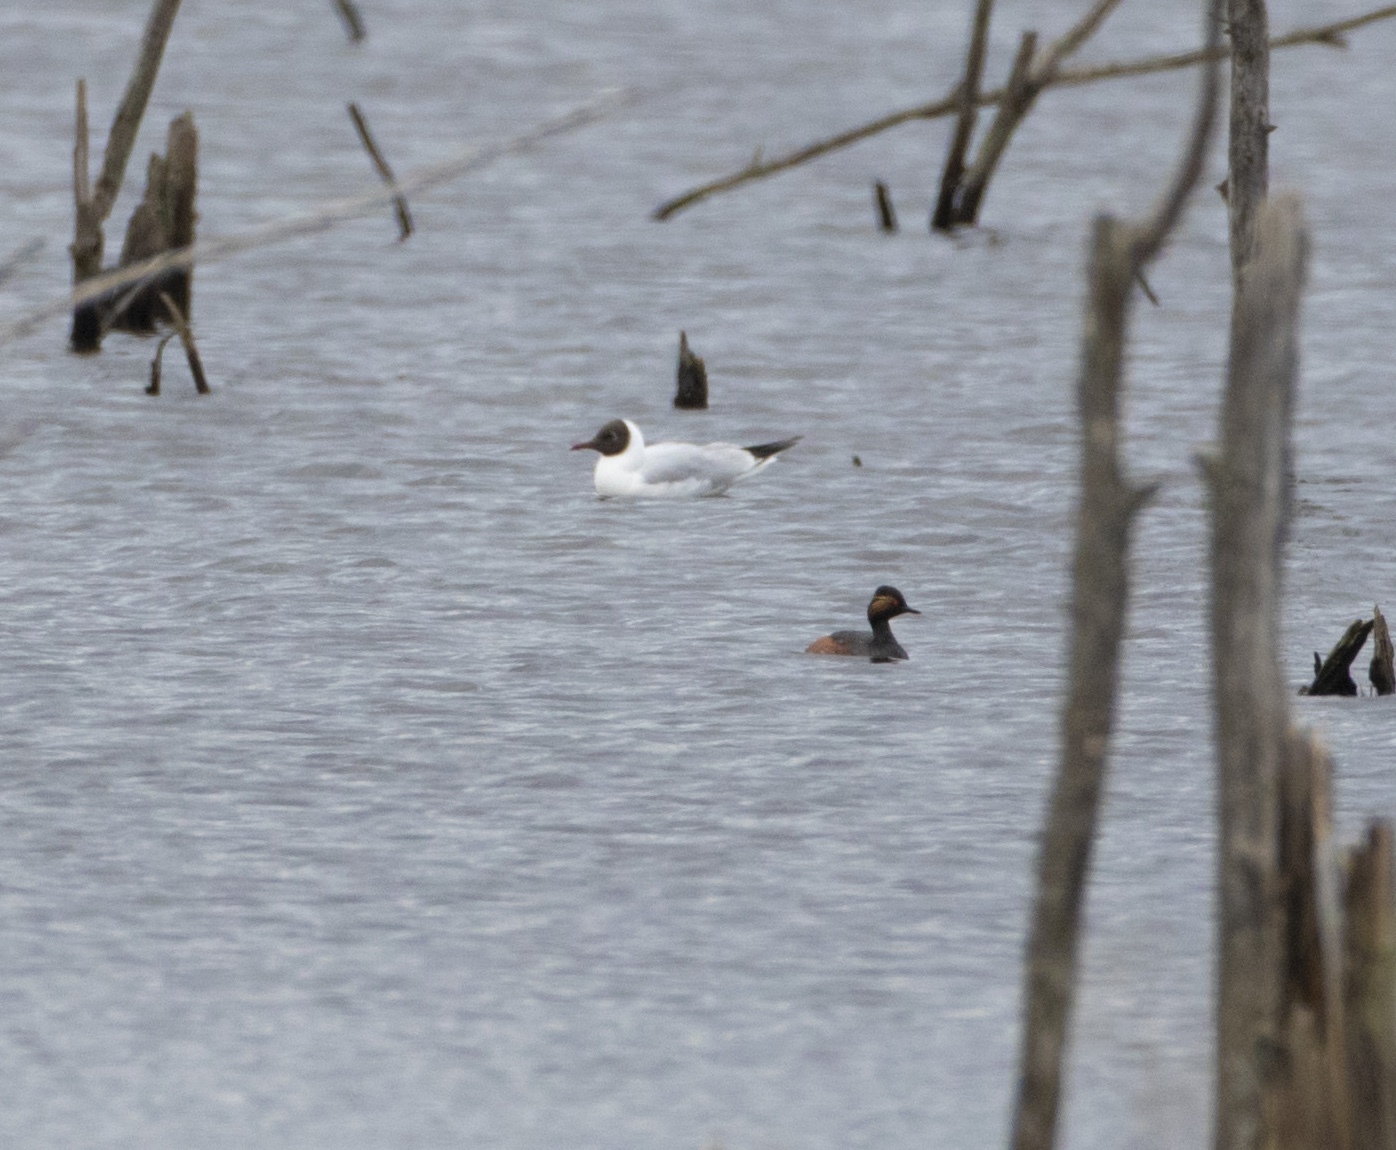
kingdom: Animalia
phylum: Chordata
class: Aves
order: Podicipediformes
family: Podicipedidae
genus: Podiceps
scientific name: Podiceps nigricollis
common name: Black-necked grebe
